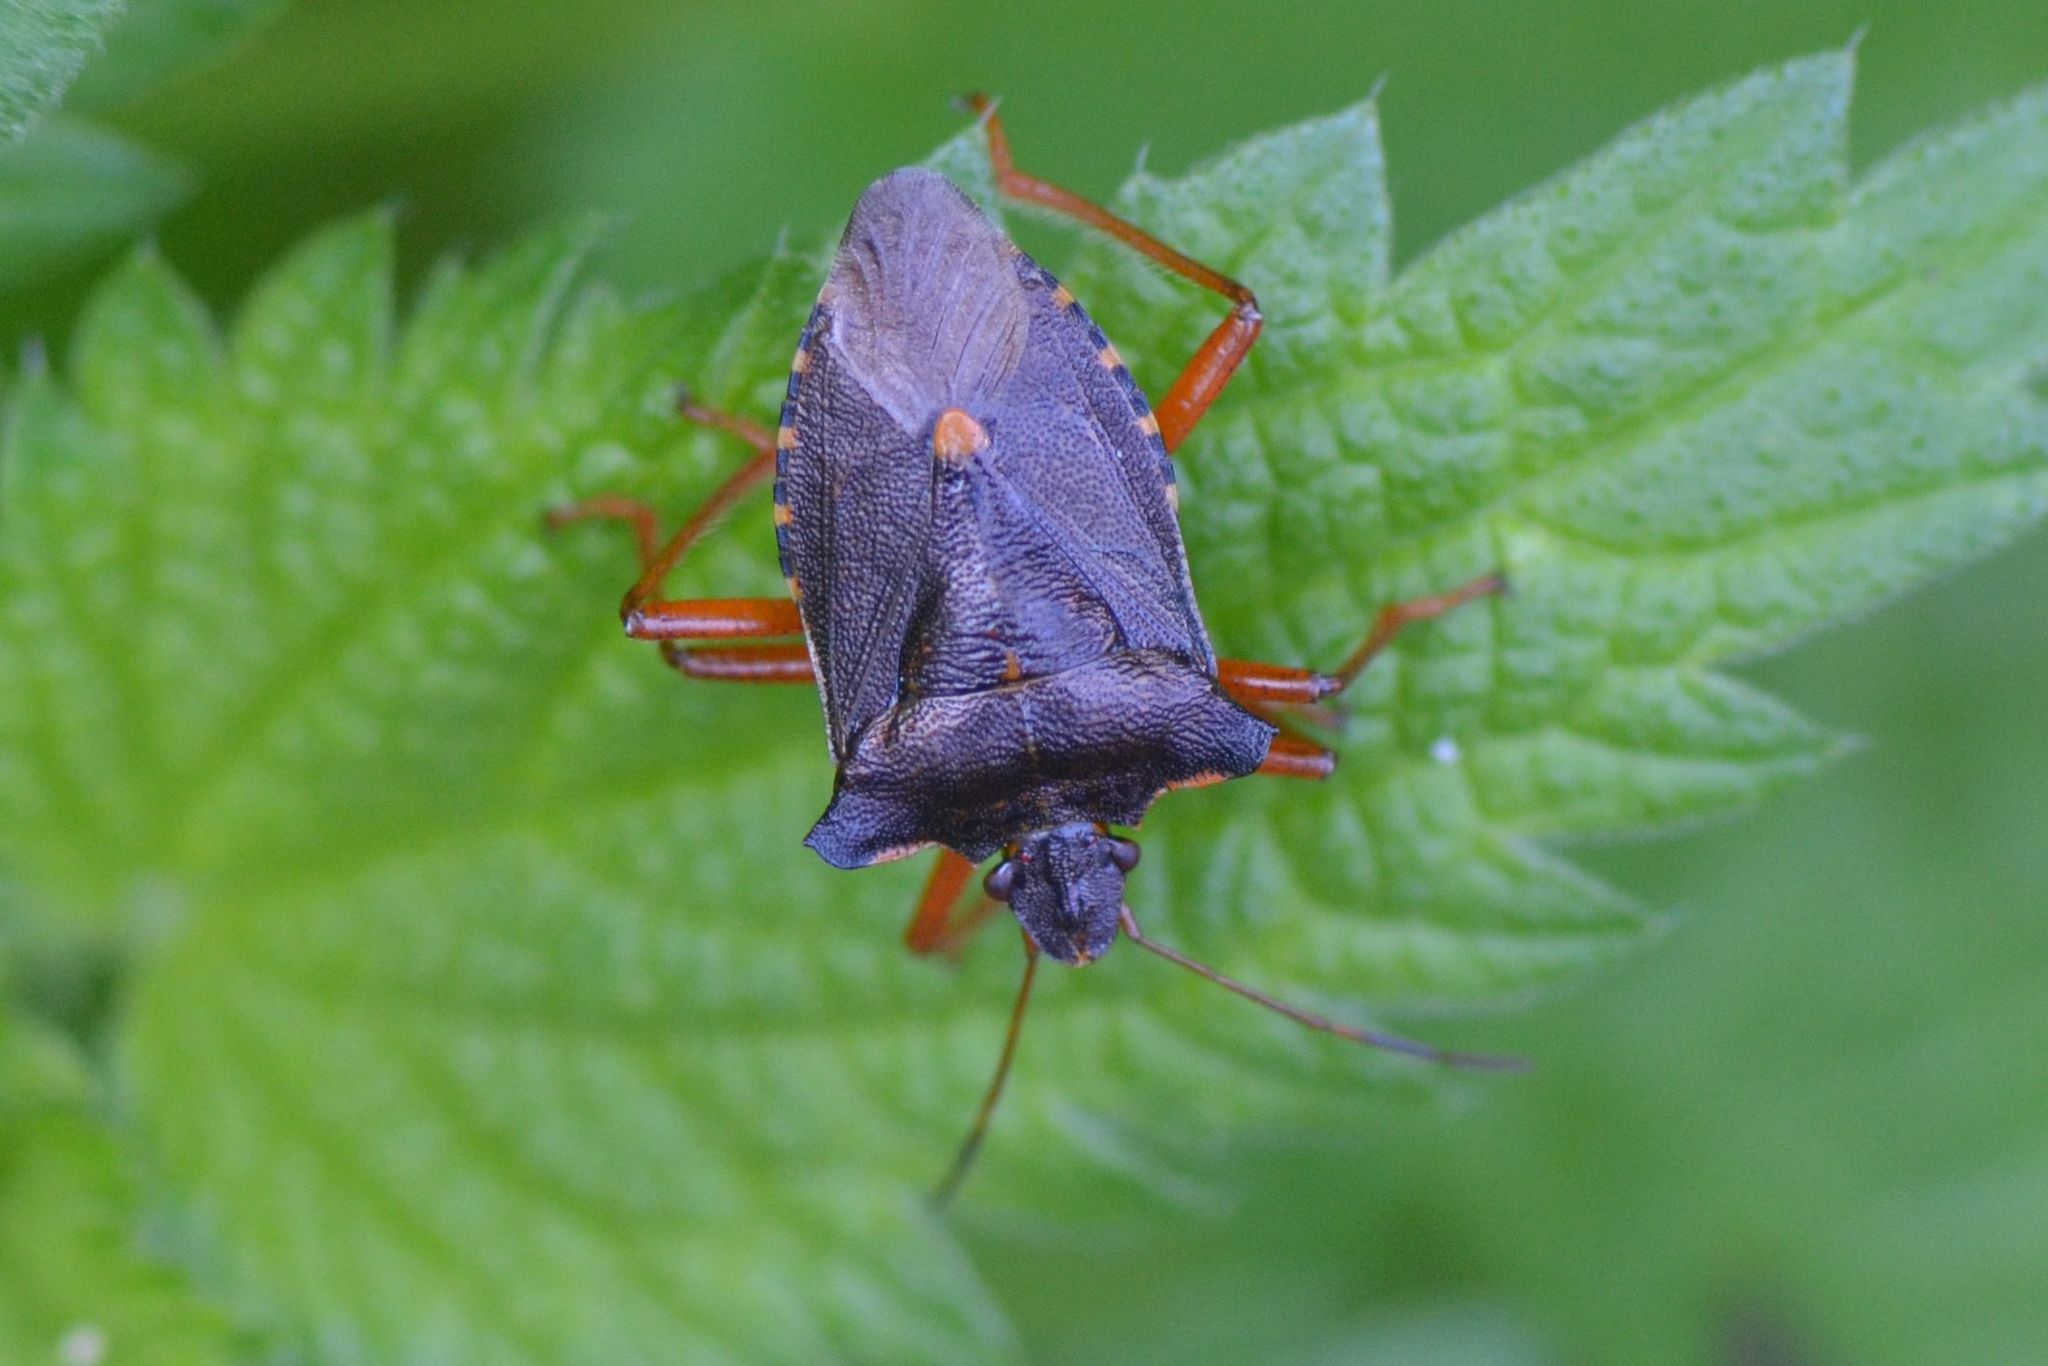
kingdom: Animalia
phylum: Arthropoda
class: Insecta
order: Hemiptera
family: Pentatomidae
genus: Pentatoma
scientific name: Pentatoma rufipes
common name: Forest bug
